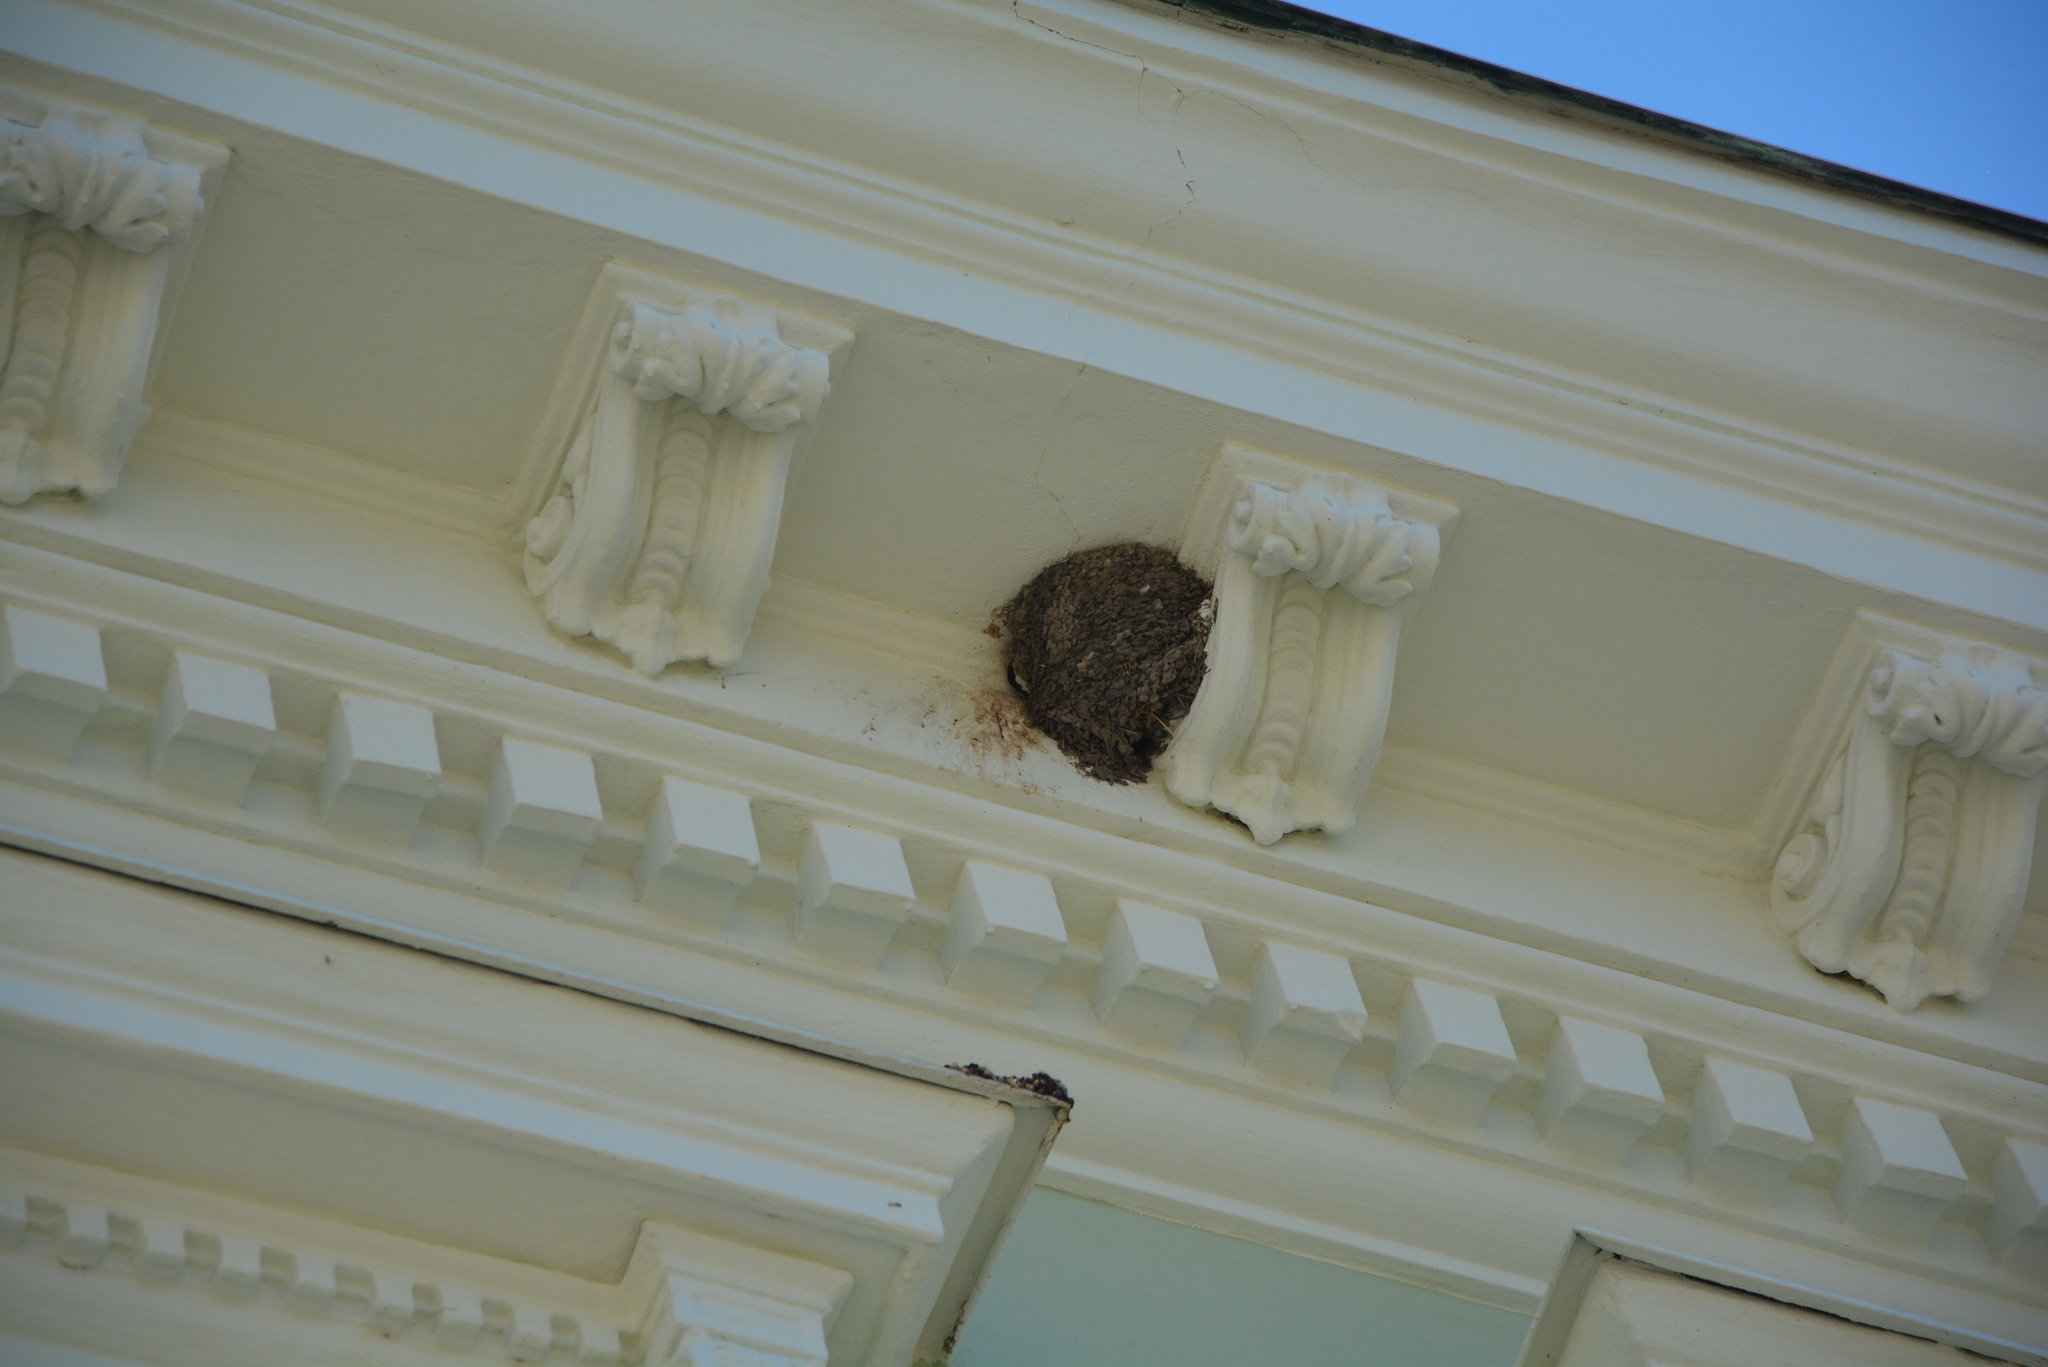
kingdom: Animalia
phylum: Chordata
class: Aves
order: Passeriformes
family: Hirundinidae
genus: Delichon
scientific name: Delichon urbicum
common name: Common house martin
